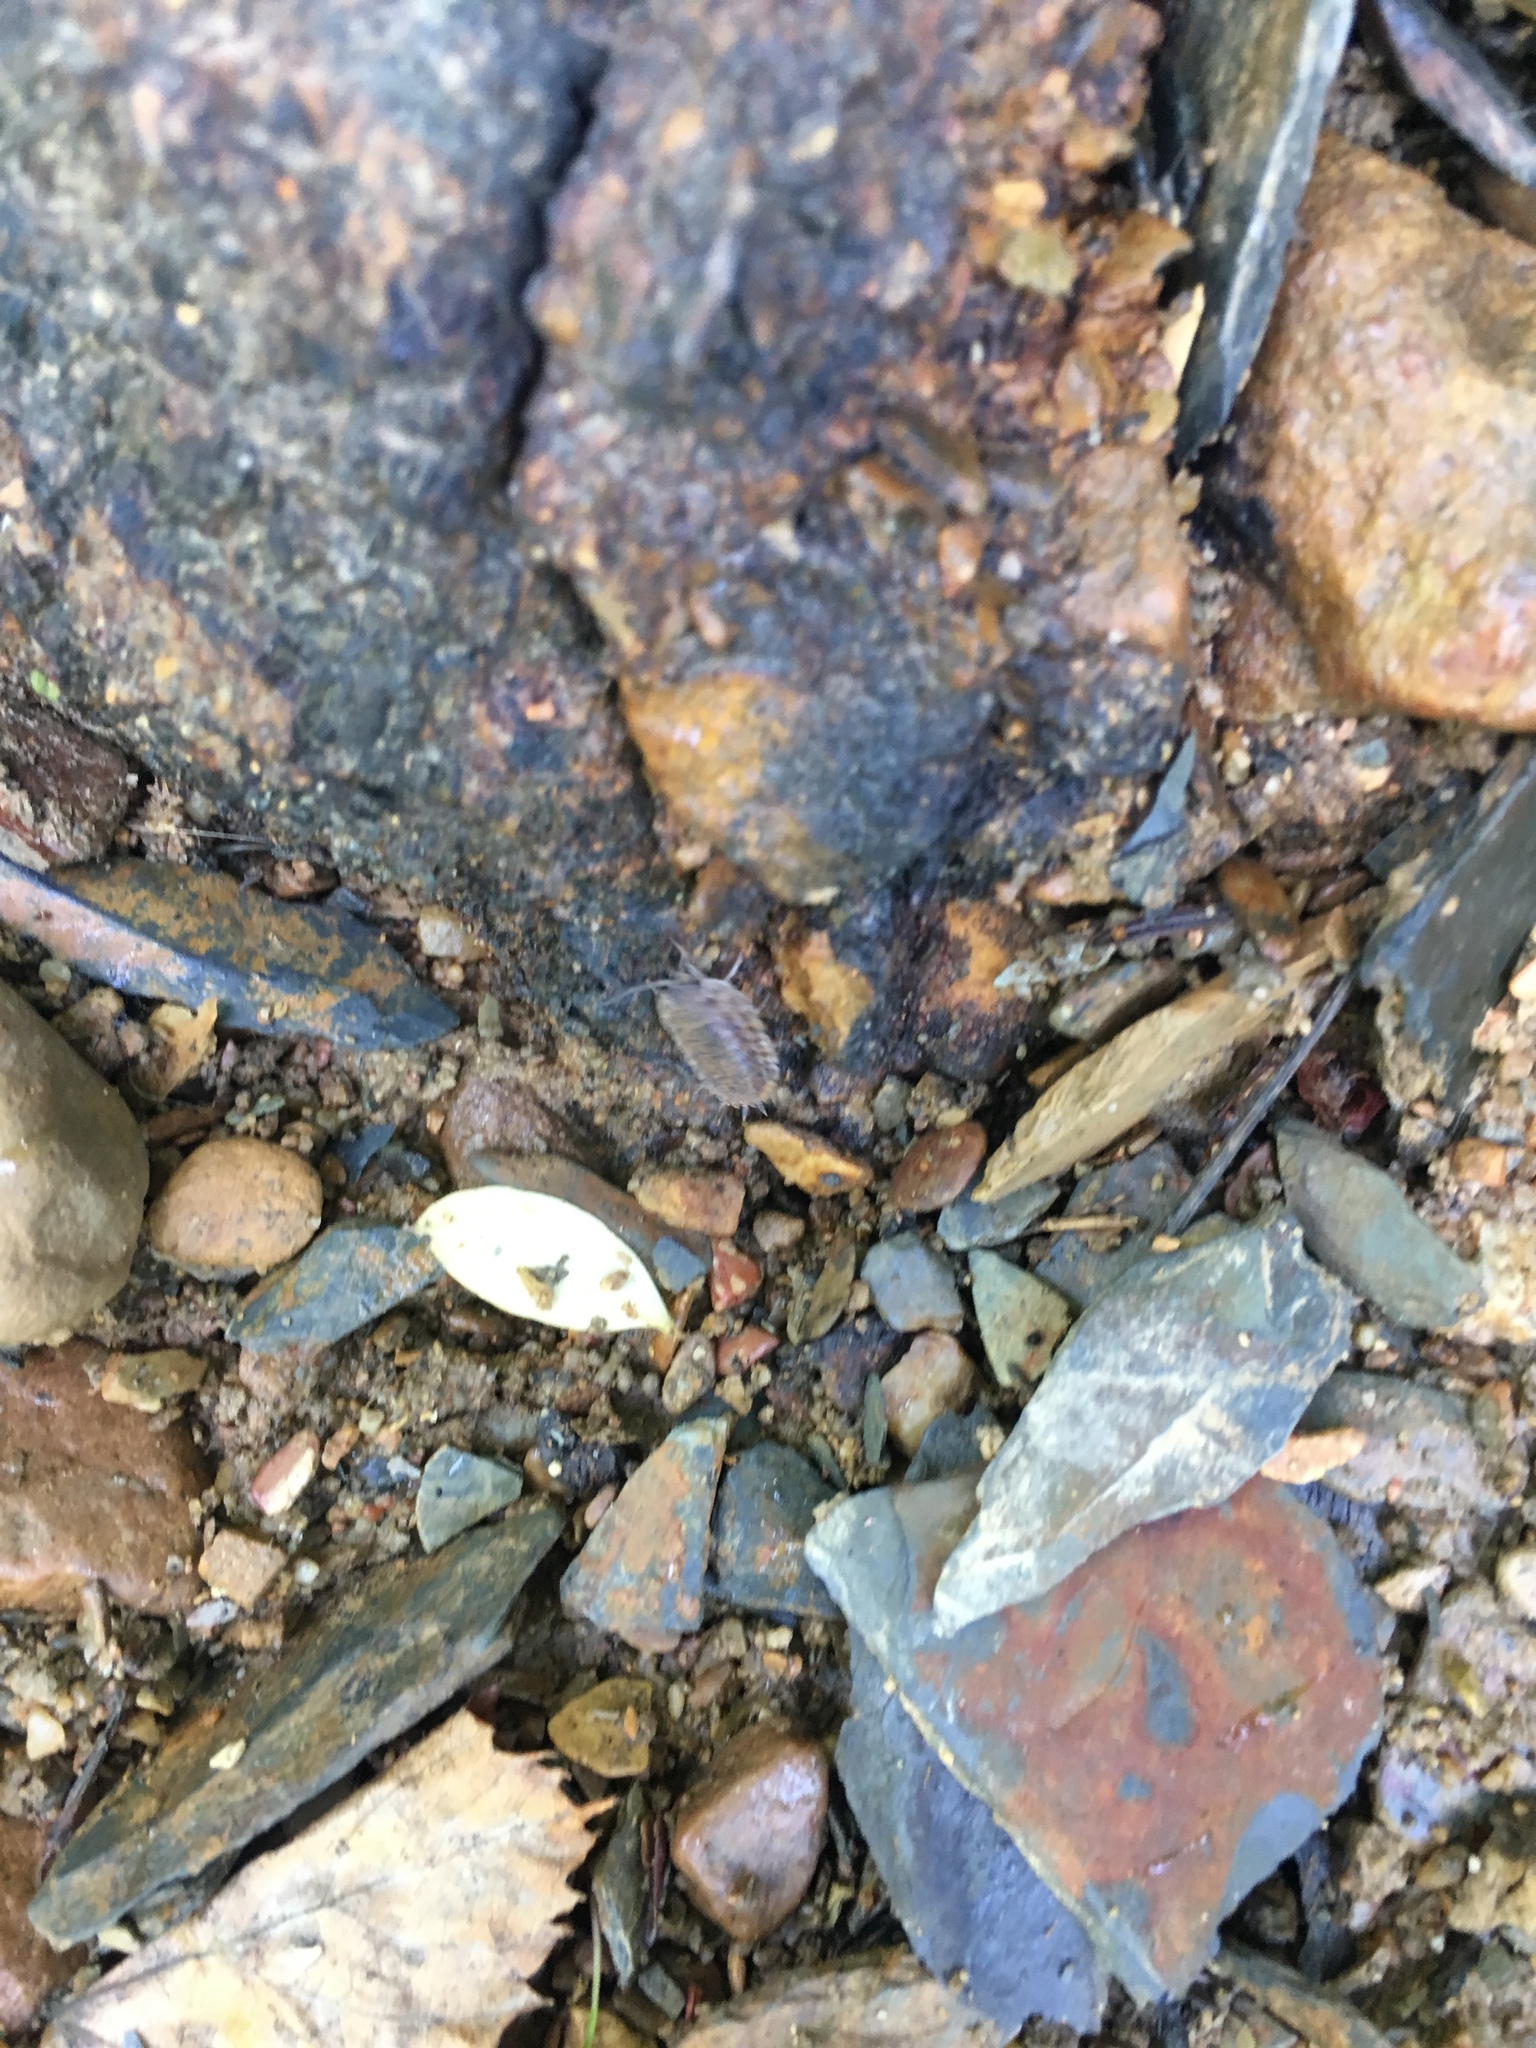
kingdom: Animalia
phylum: Arthropoda
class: Malacostraca
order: Isopoda
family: Trachelipodidae
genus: Trachelipus
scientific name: Trachelipus rathkii
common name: Isopod
